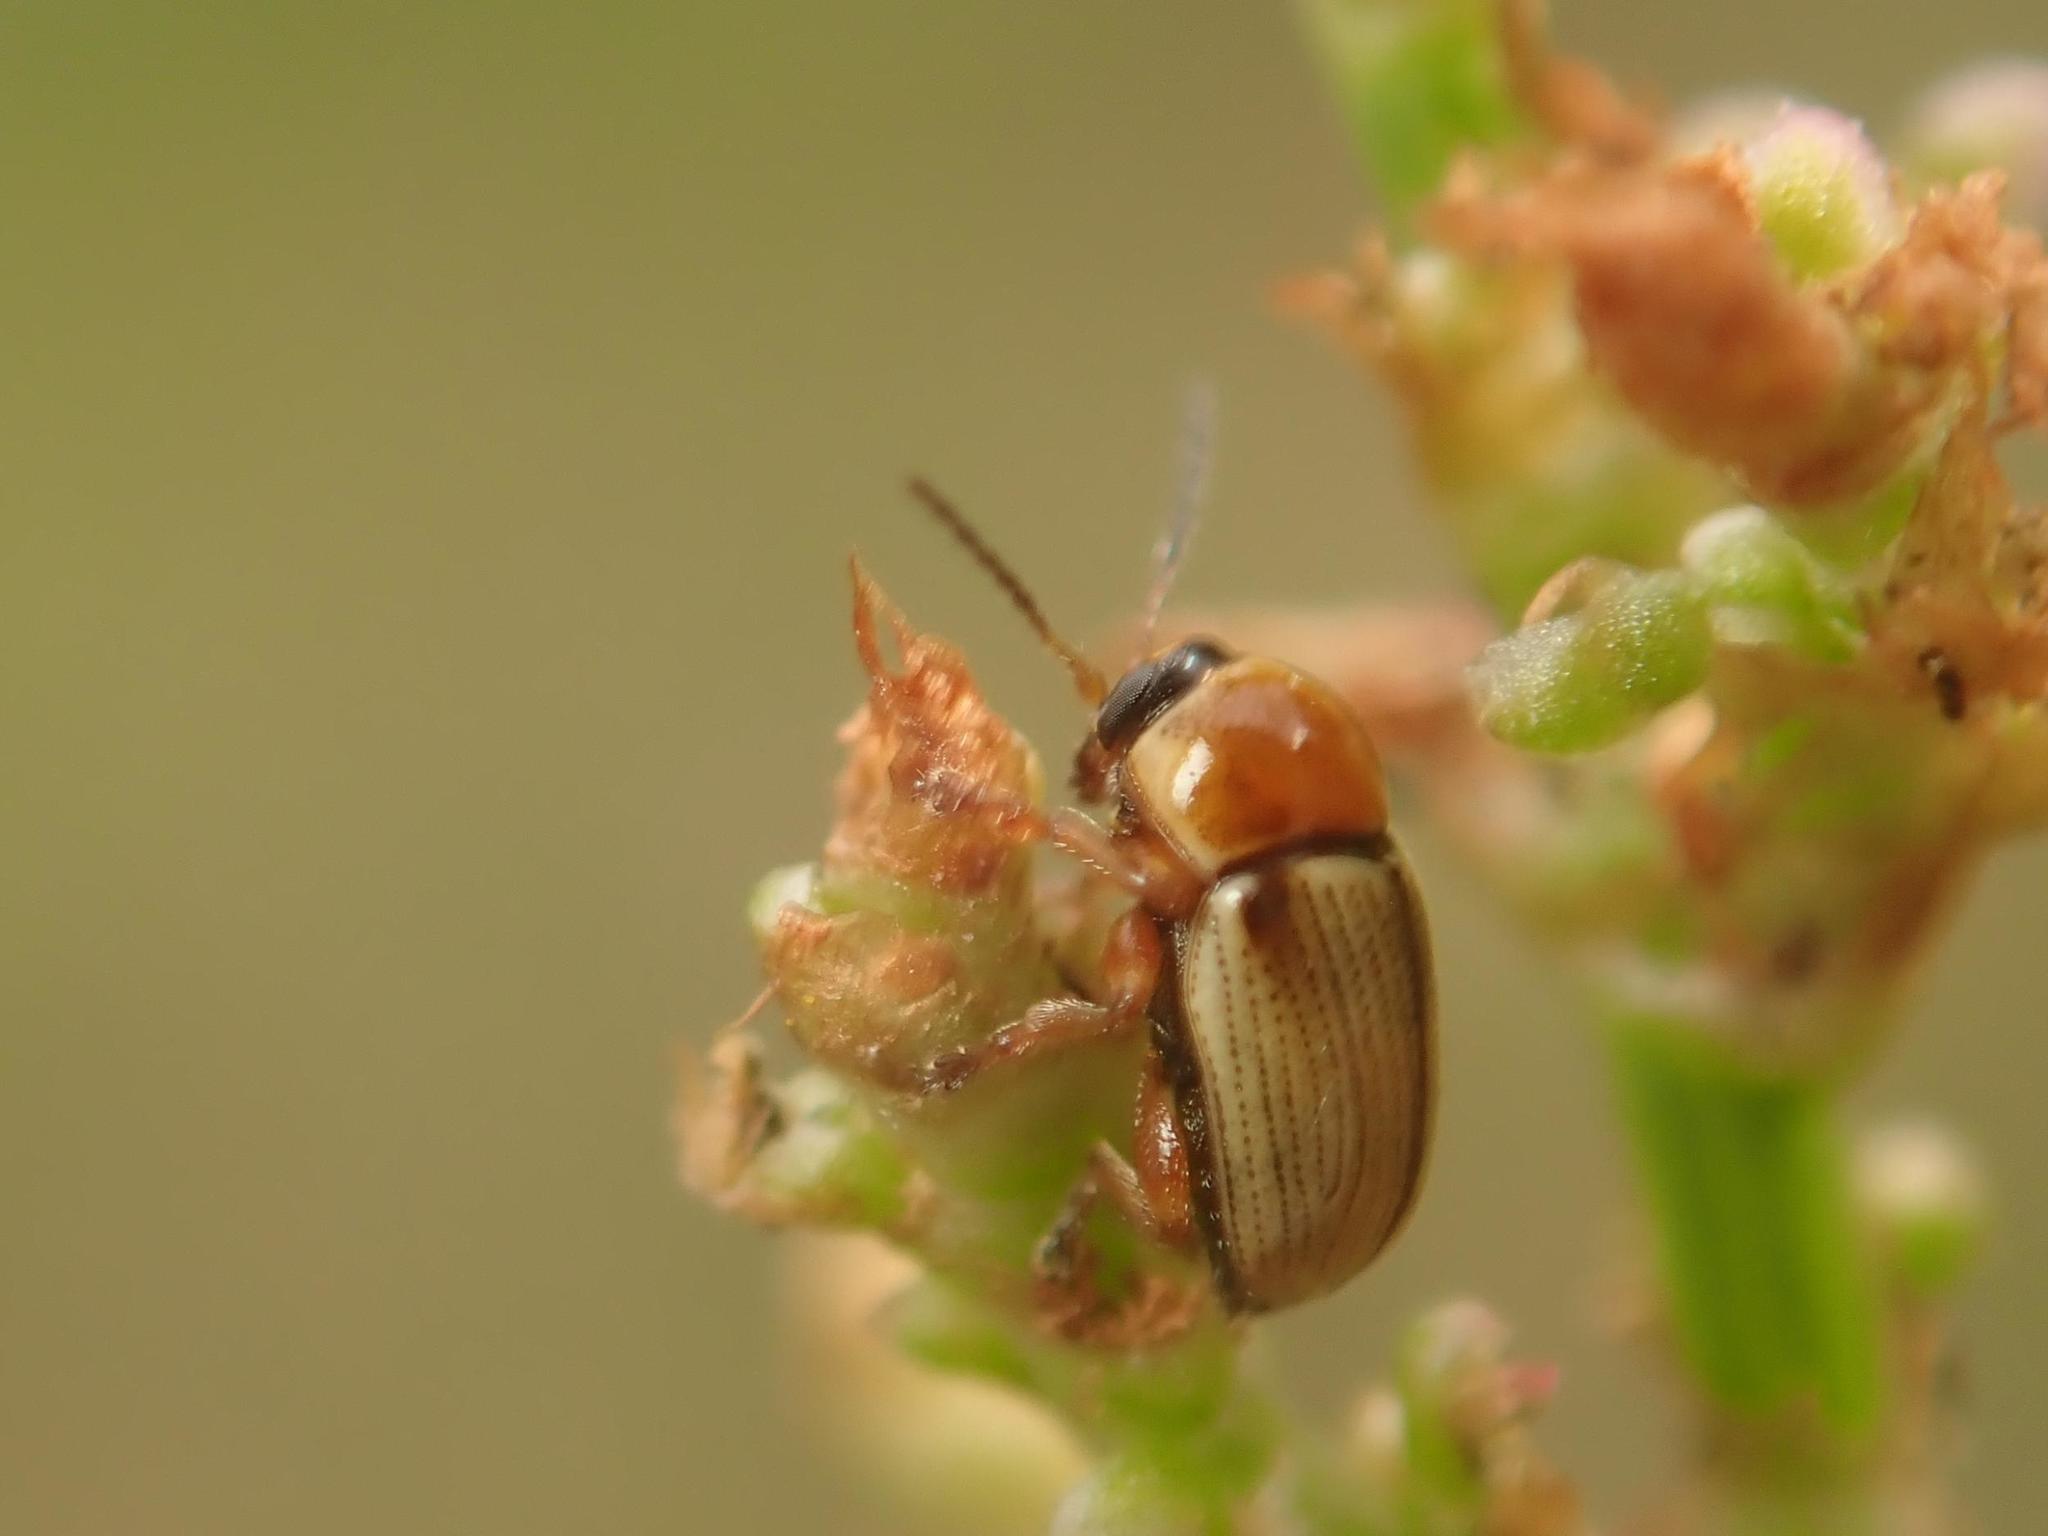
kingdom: Animalia
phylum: Arthropoda
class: Insecta
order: Coleoptera
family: Chrysomelidae
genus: Cryptocephalus
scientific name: Cryptocephalus fulvus
